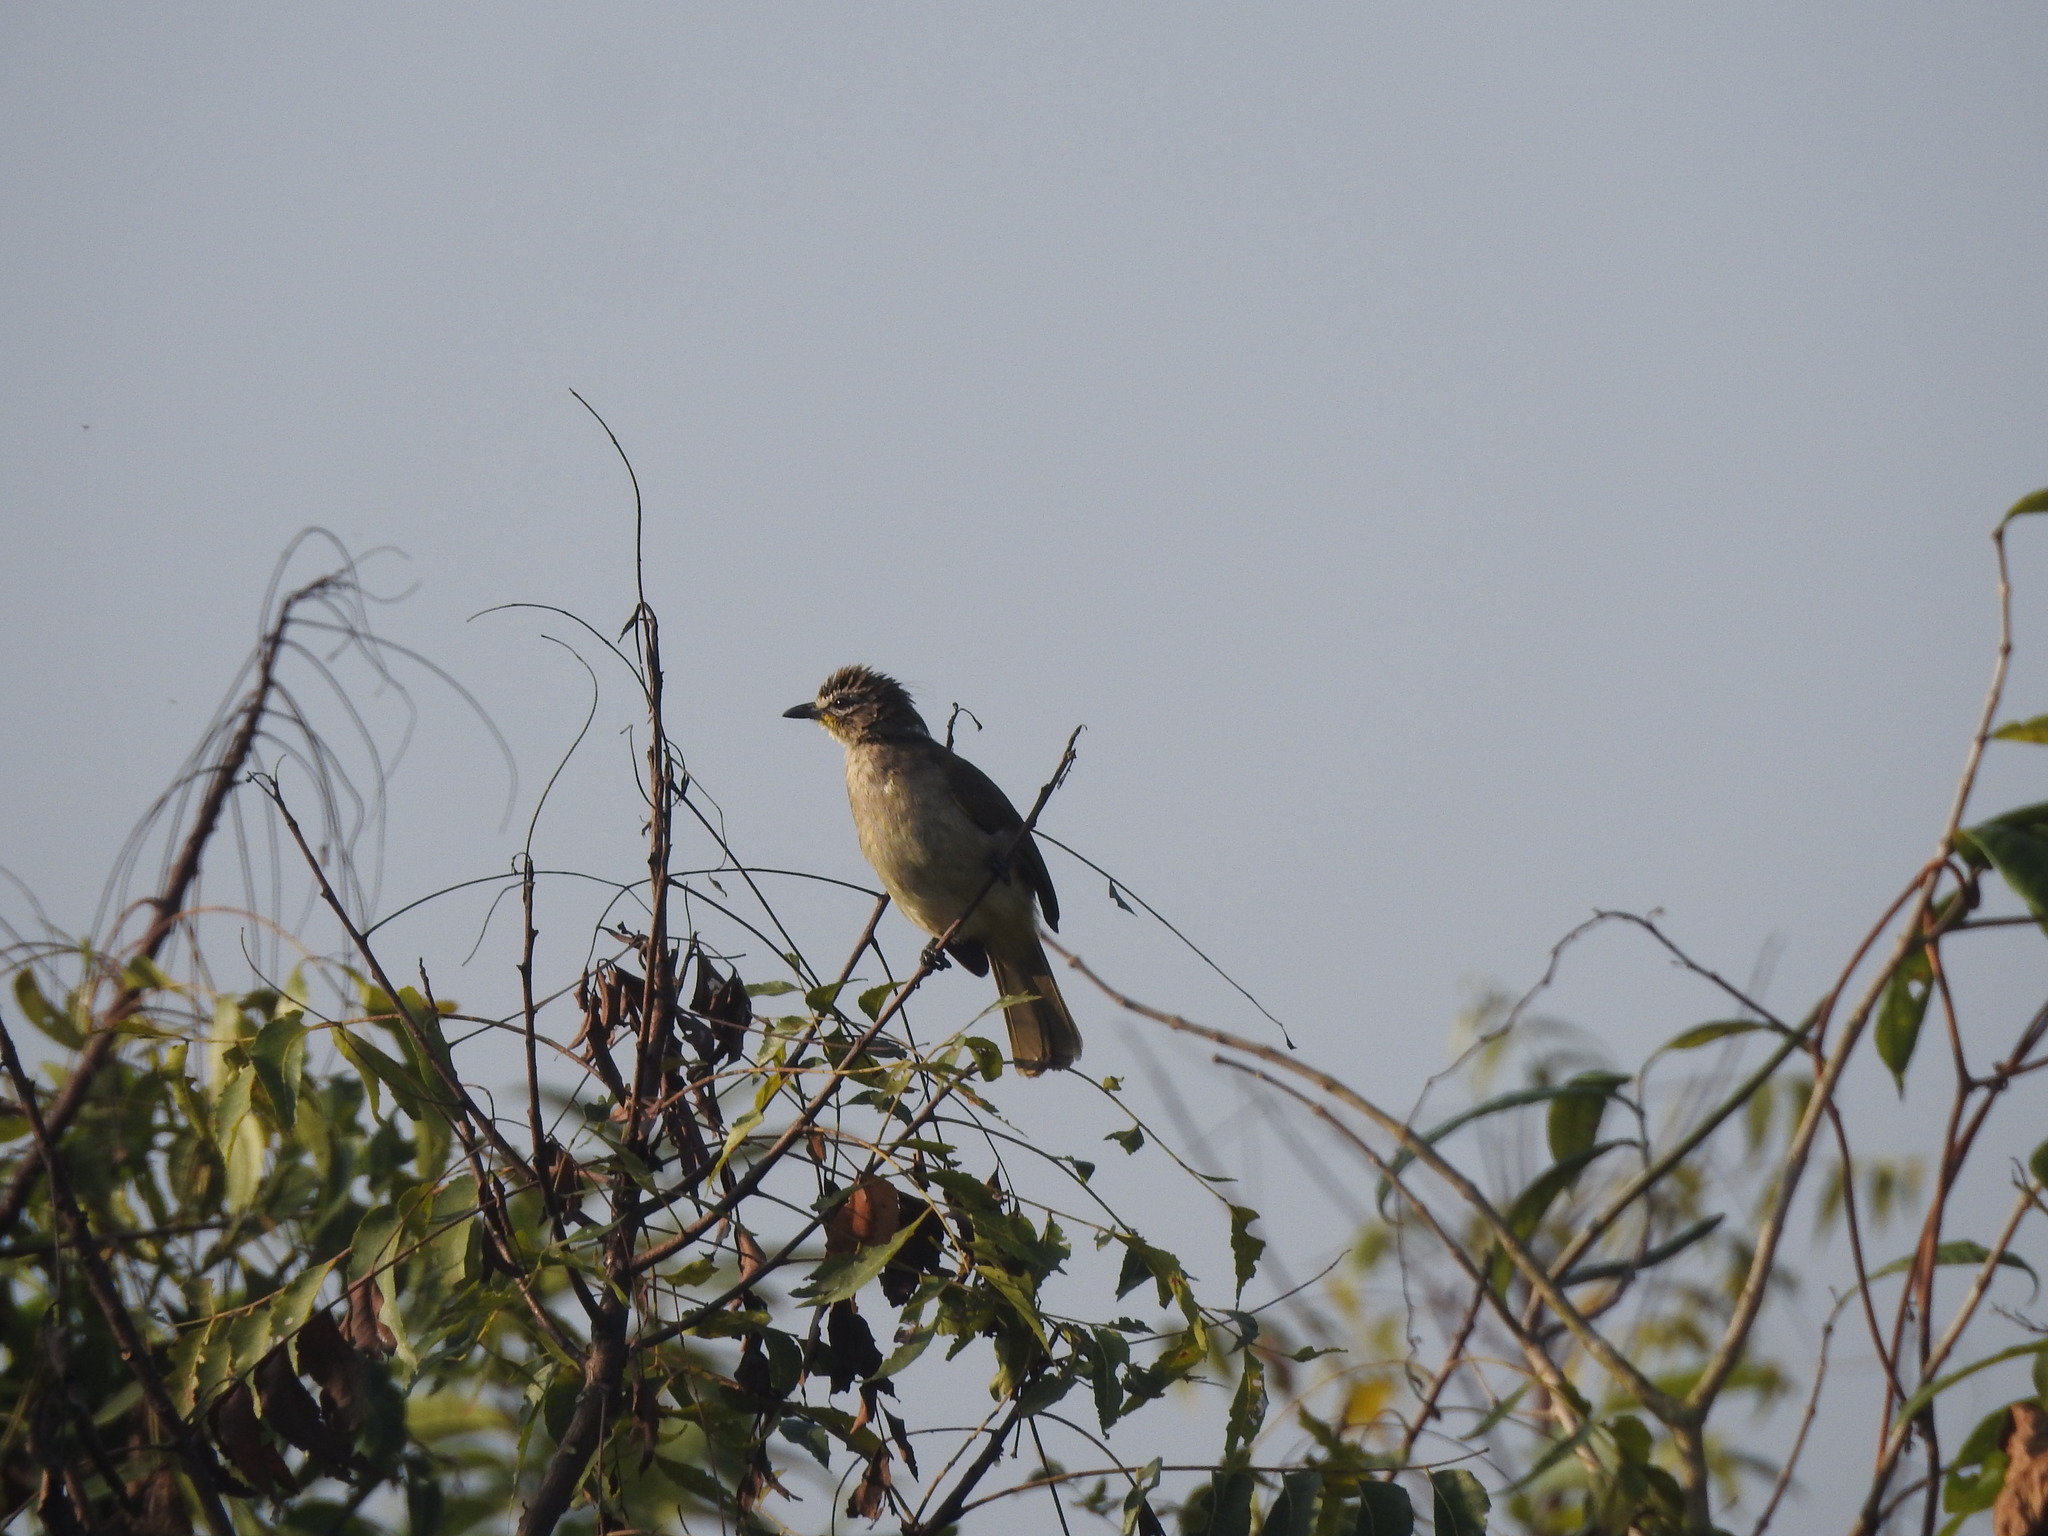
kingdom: Animalia
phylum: Chordata
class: Aves
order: Passeriformes
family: Pycnonotidae
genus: Pycnonotus
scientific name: Pycnonotus luteolus
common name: White-browed bulbul
